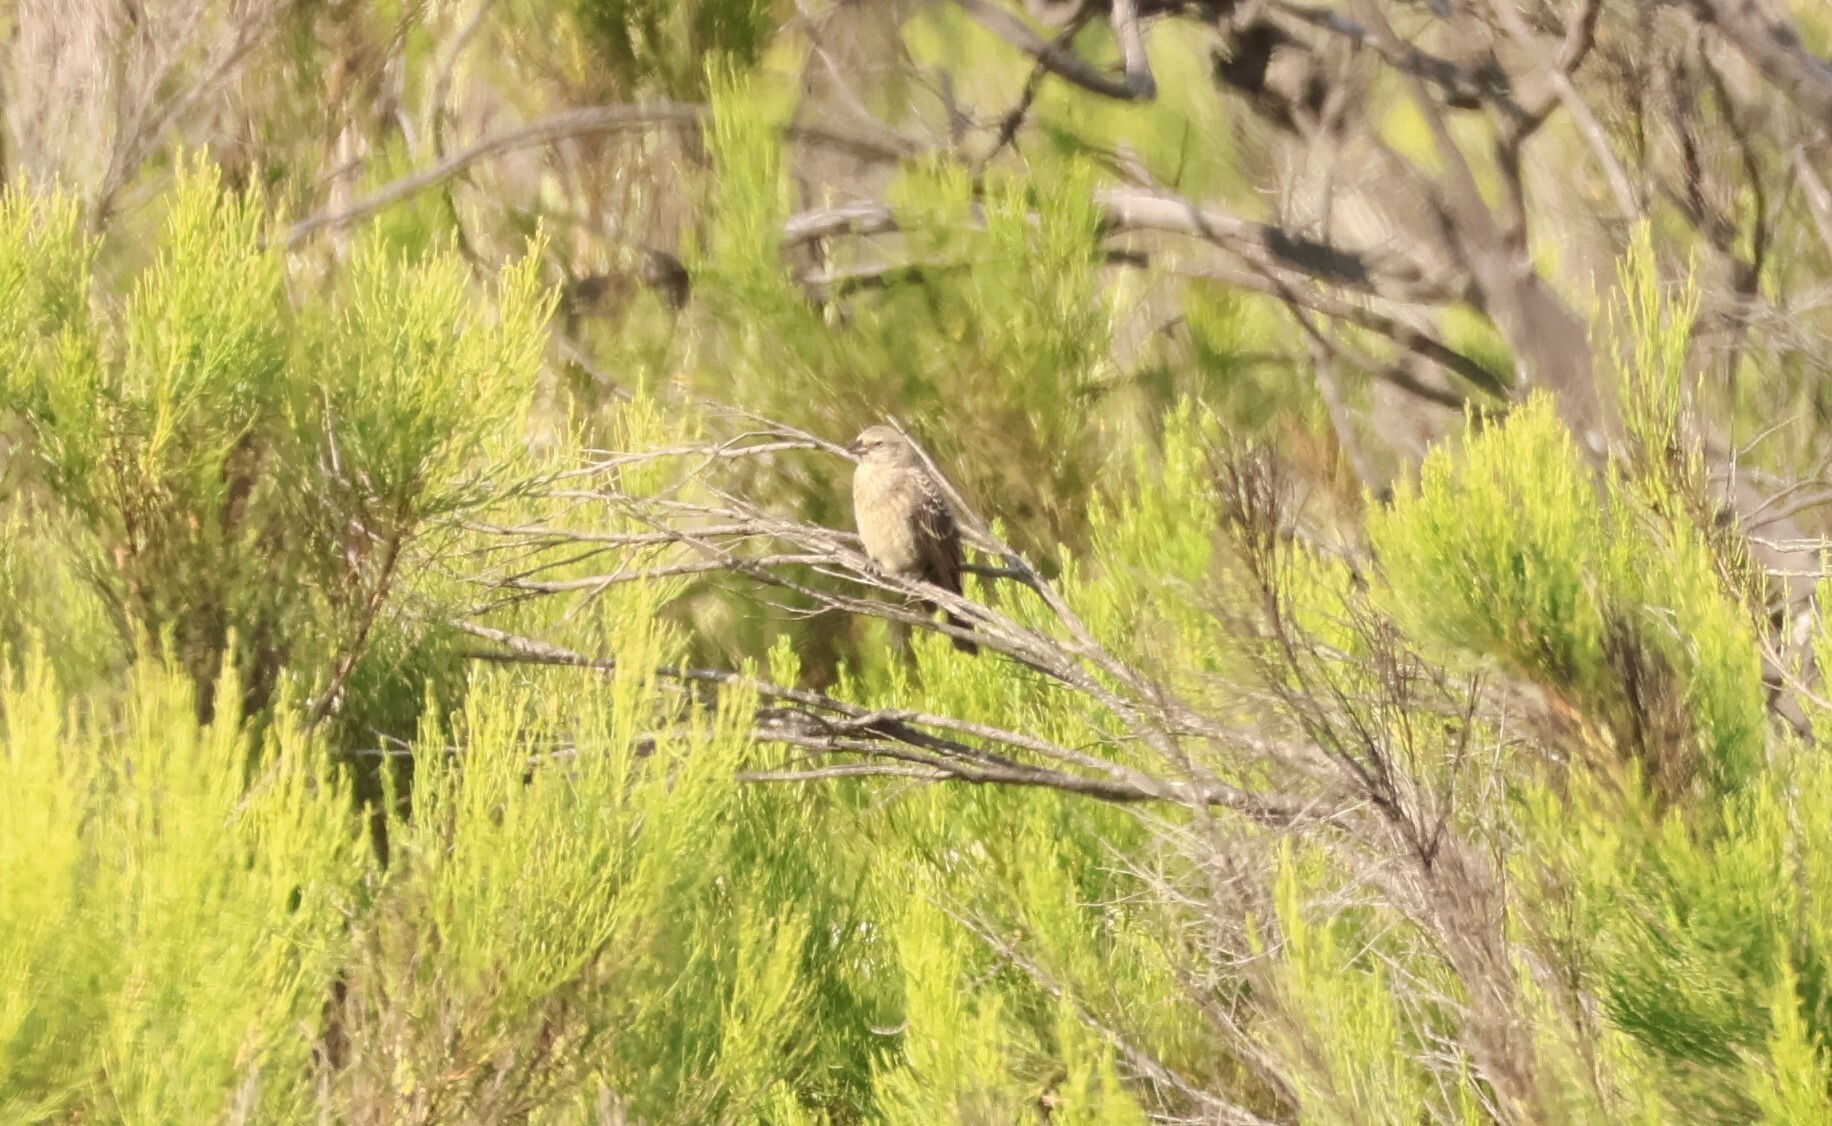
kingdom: Animalia
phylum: Chordata
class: Aves
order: Passeriformes
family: Icteridae
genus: Molothrus
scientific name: Molothrus ater
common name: Brown-headed cowbird
